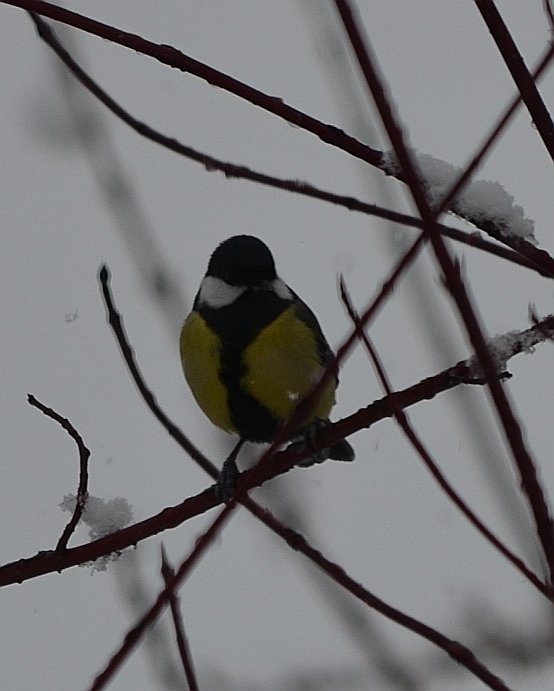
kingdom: Animalia
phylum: Chordata
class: Aves
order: Passeriformes
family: Paridae
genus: Parus
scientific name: Parus major
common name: Great tit
